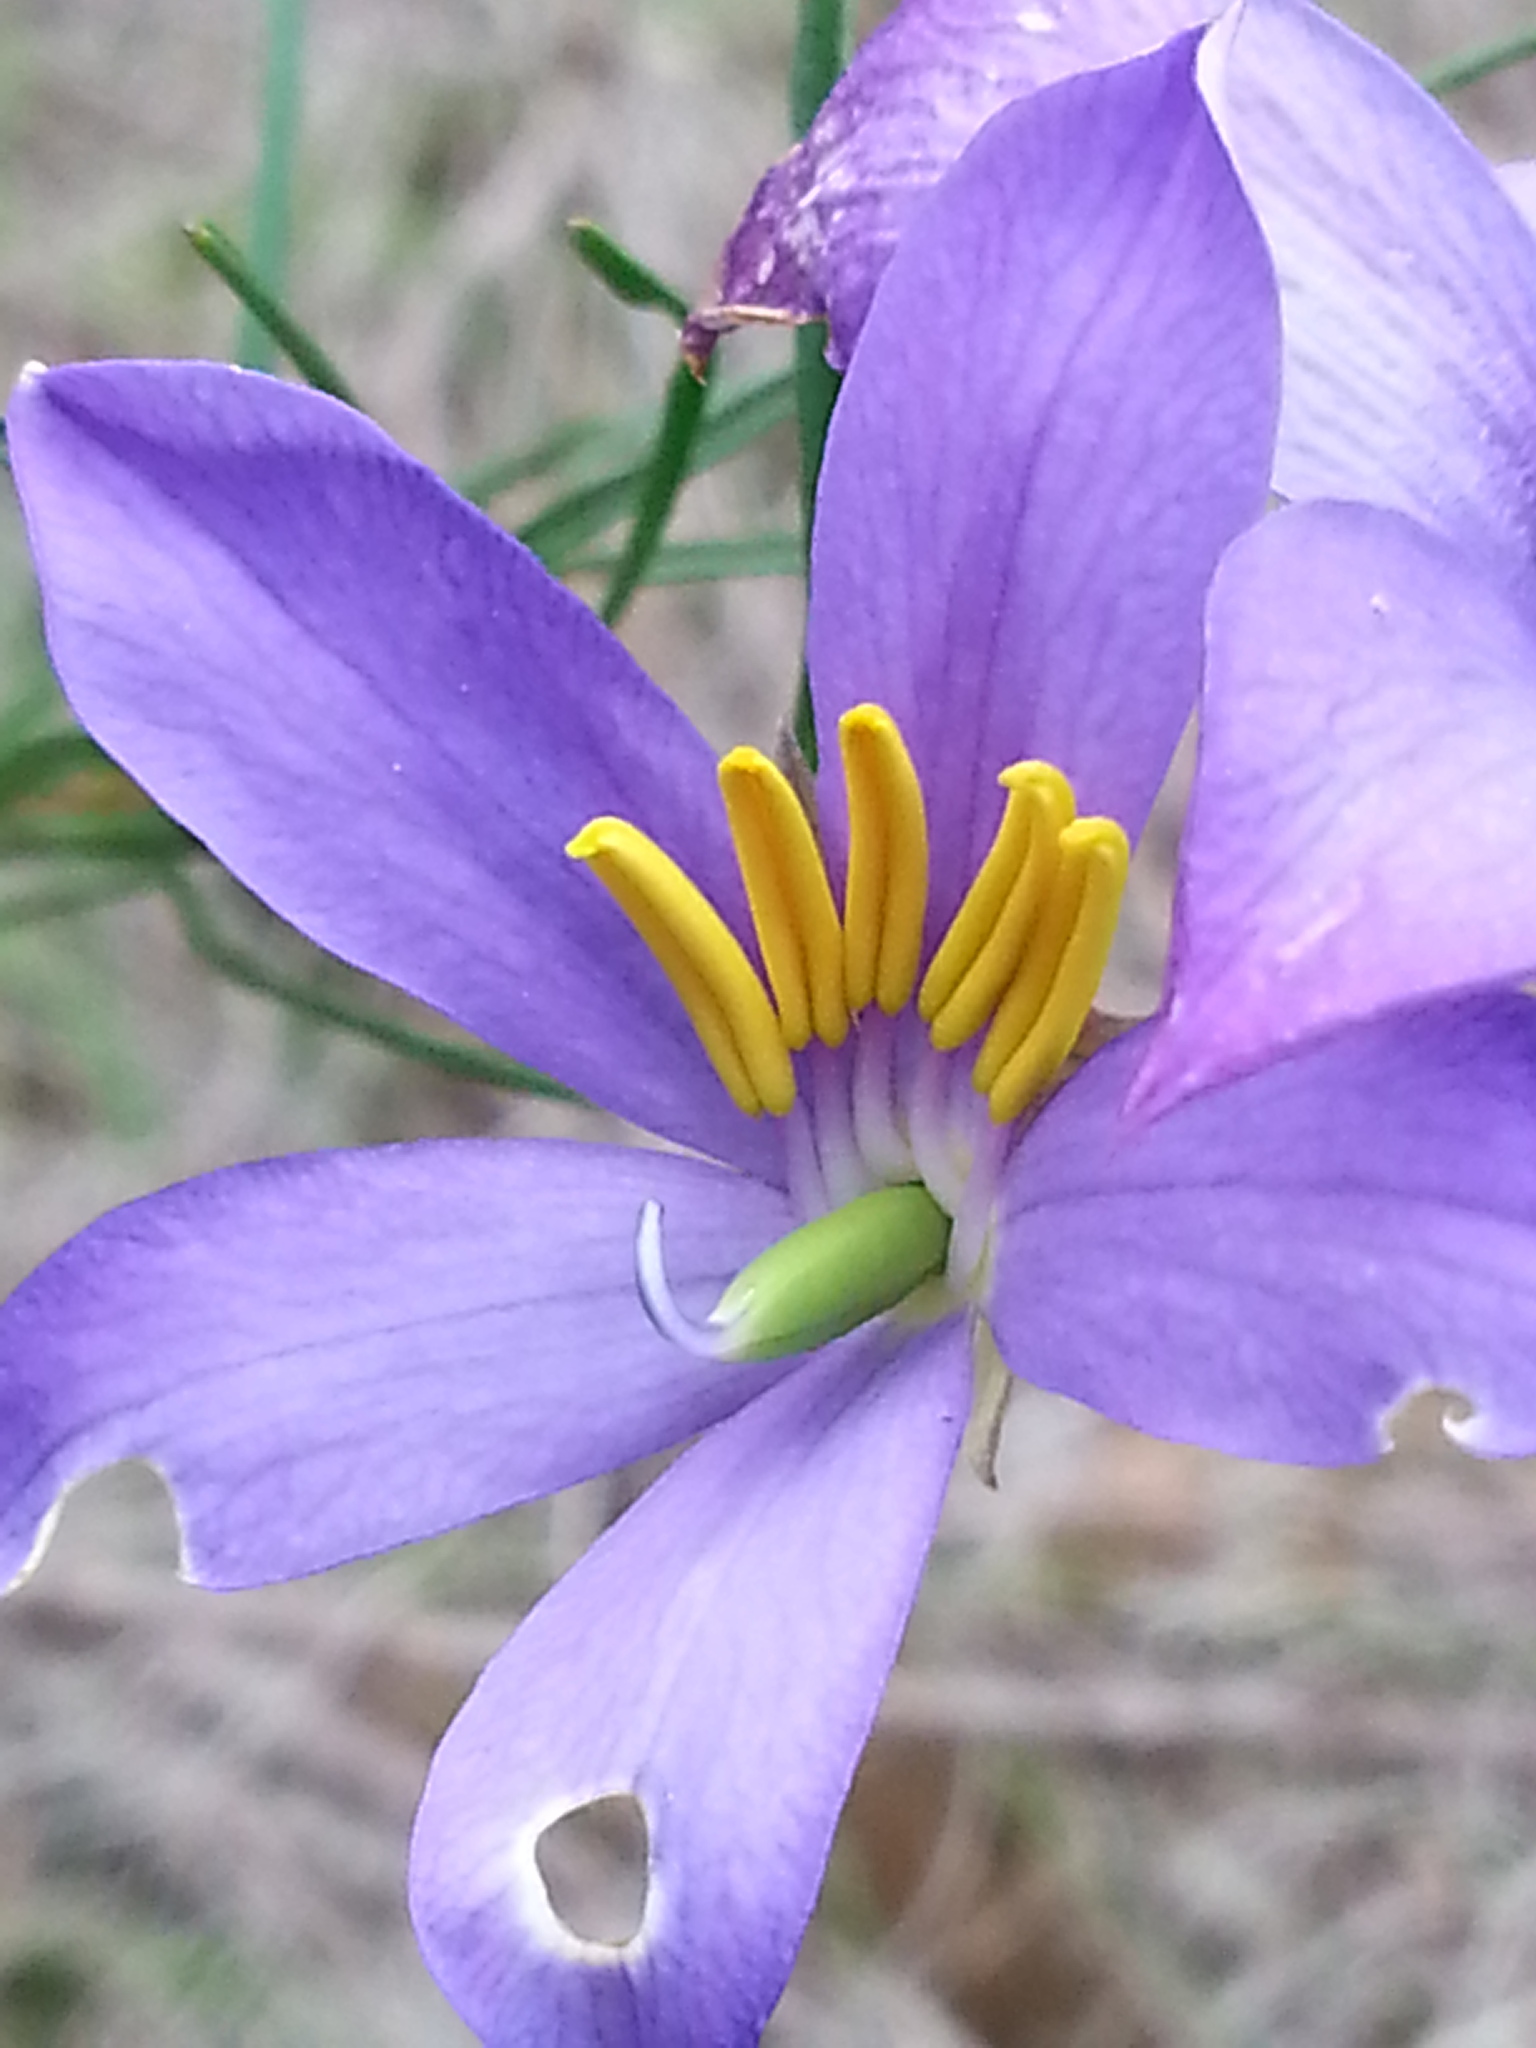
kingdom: Plantae
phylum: Tracheophyta
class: Magnoliopsida
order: Apiales
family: Pittosporaceae
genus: Cheiranthera
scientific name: Cheiranthera alternifolia
